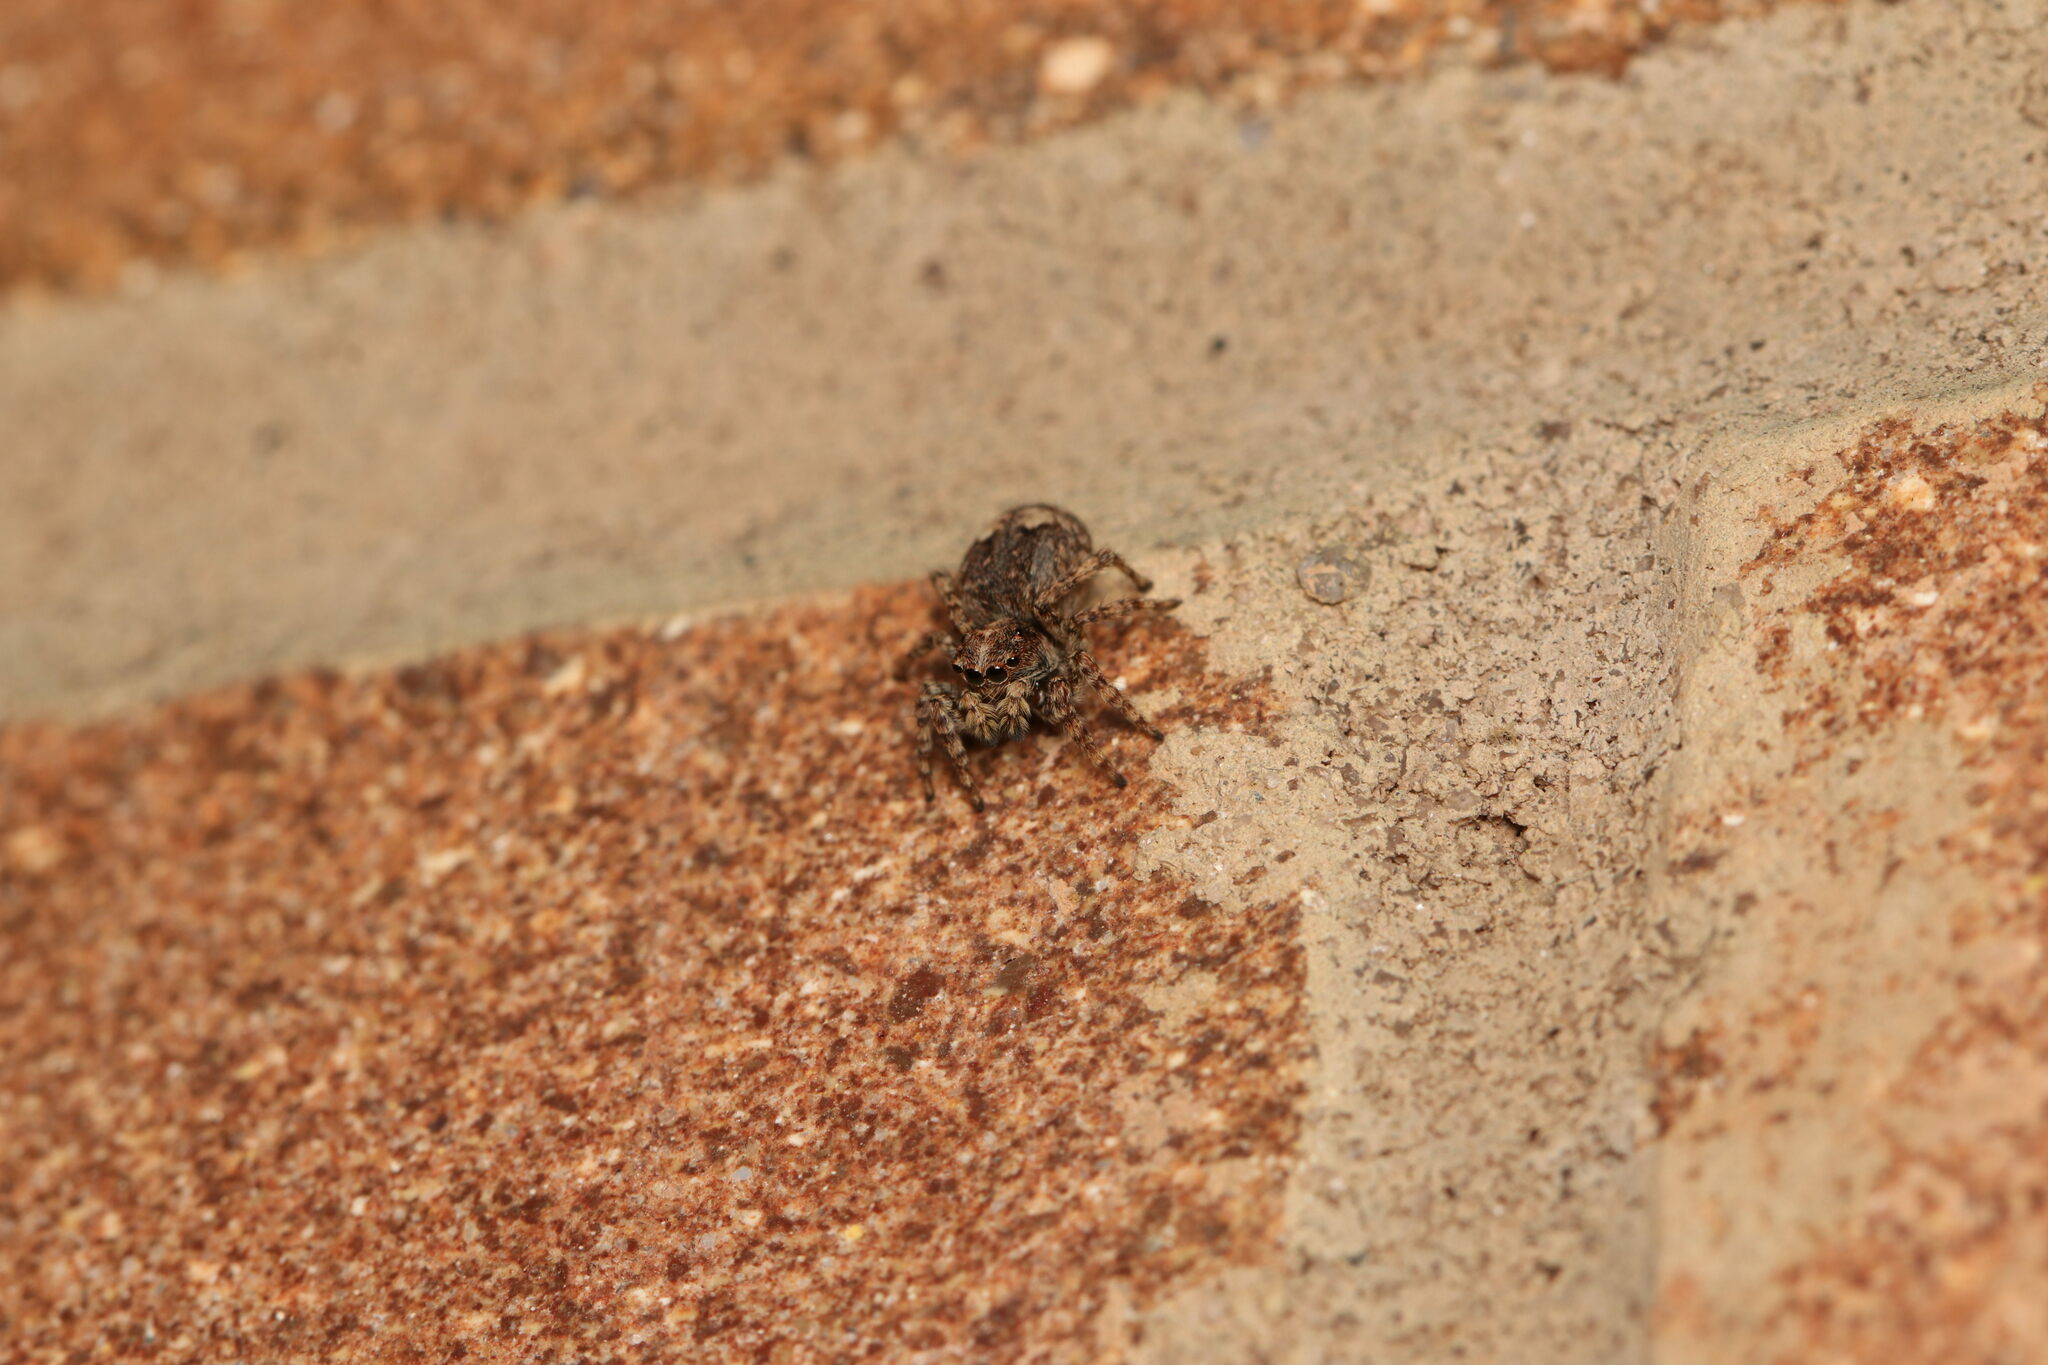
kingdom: Animalia
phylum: Arthropoda
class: Arachnida
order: Araneae
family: Salticidae
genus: Attulus
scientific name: Attulus fasciger
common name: Asiatic wall jumping spider
